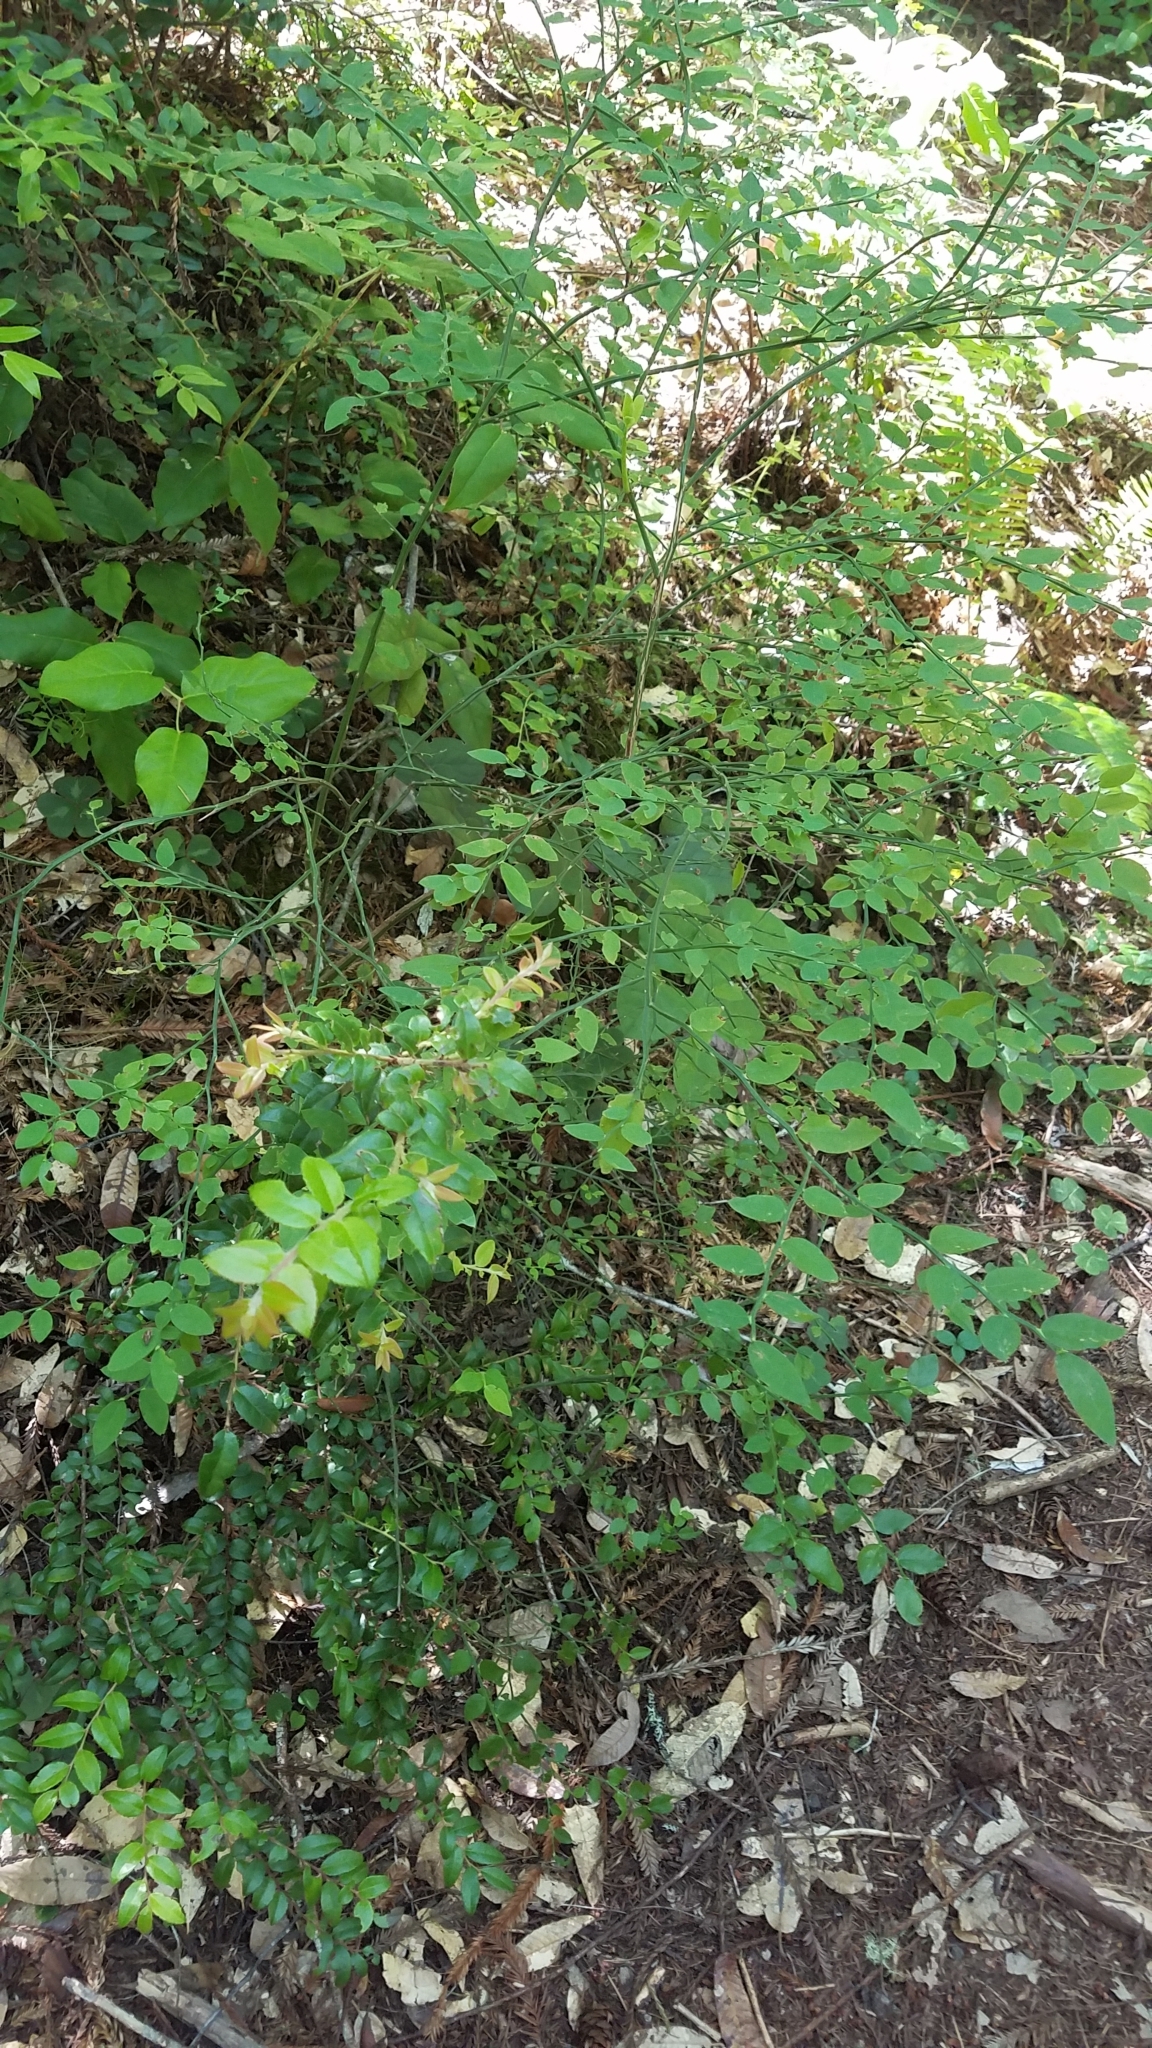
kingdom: Plantae
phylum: Tracheophyta
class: Magnoliopsida
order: Ericales
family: Ericaceae
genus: Vaccinium
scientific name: Vaccinium parvifolium
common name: Red-huckleberry
